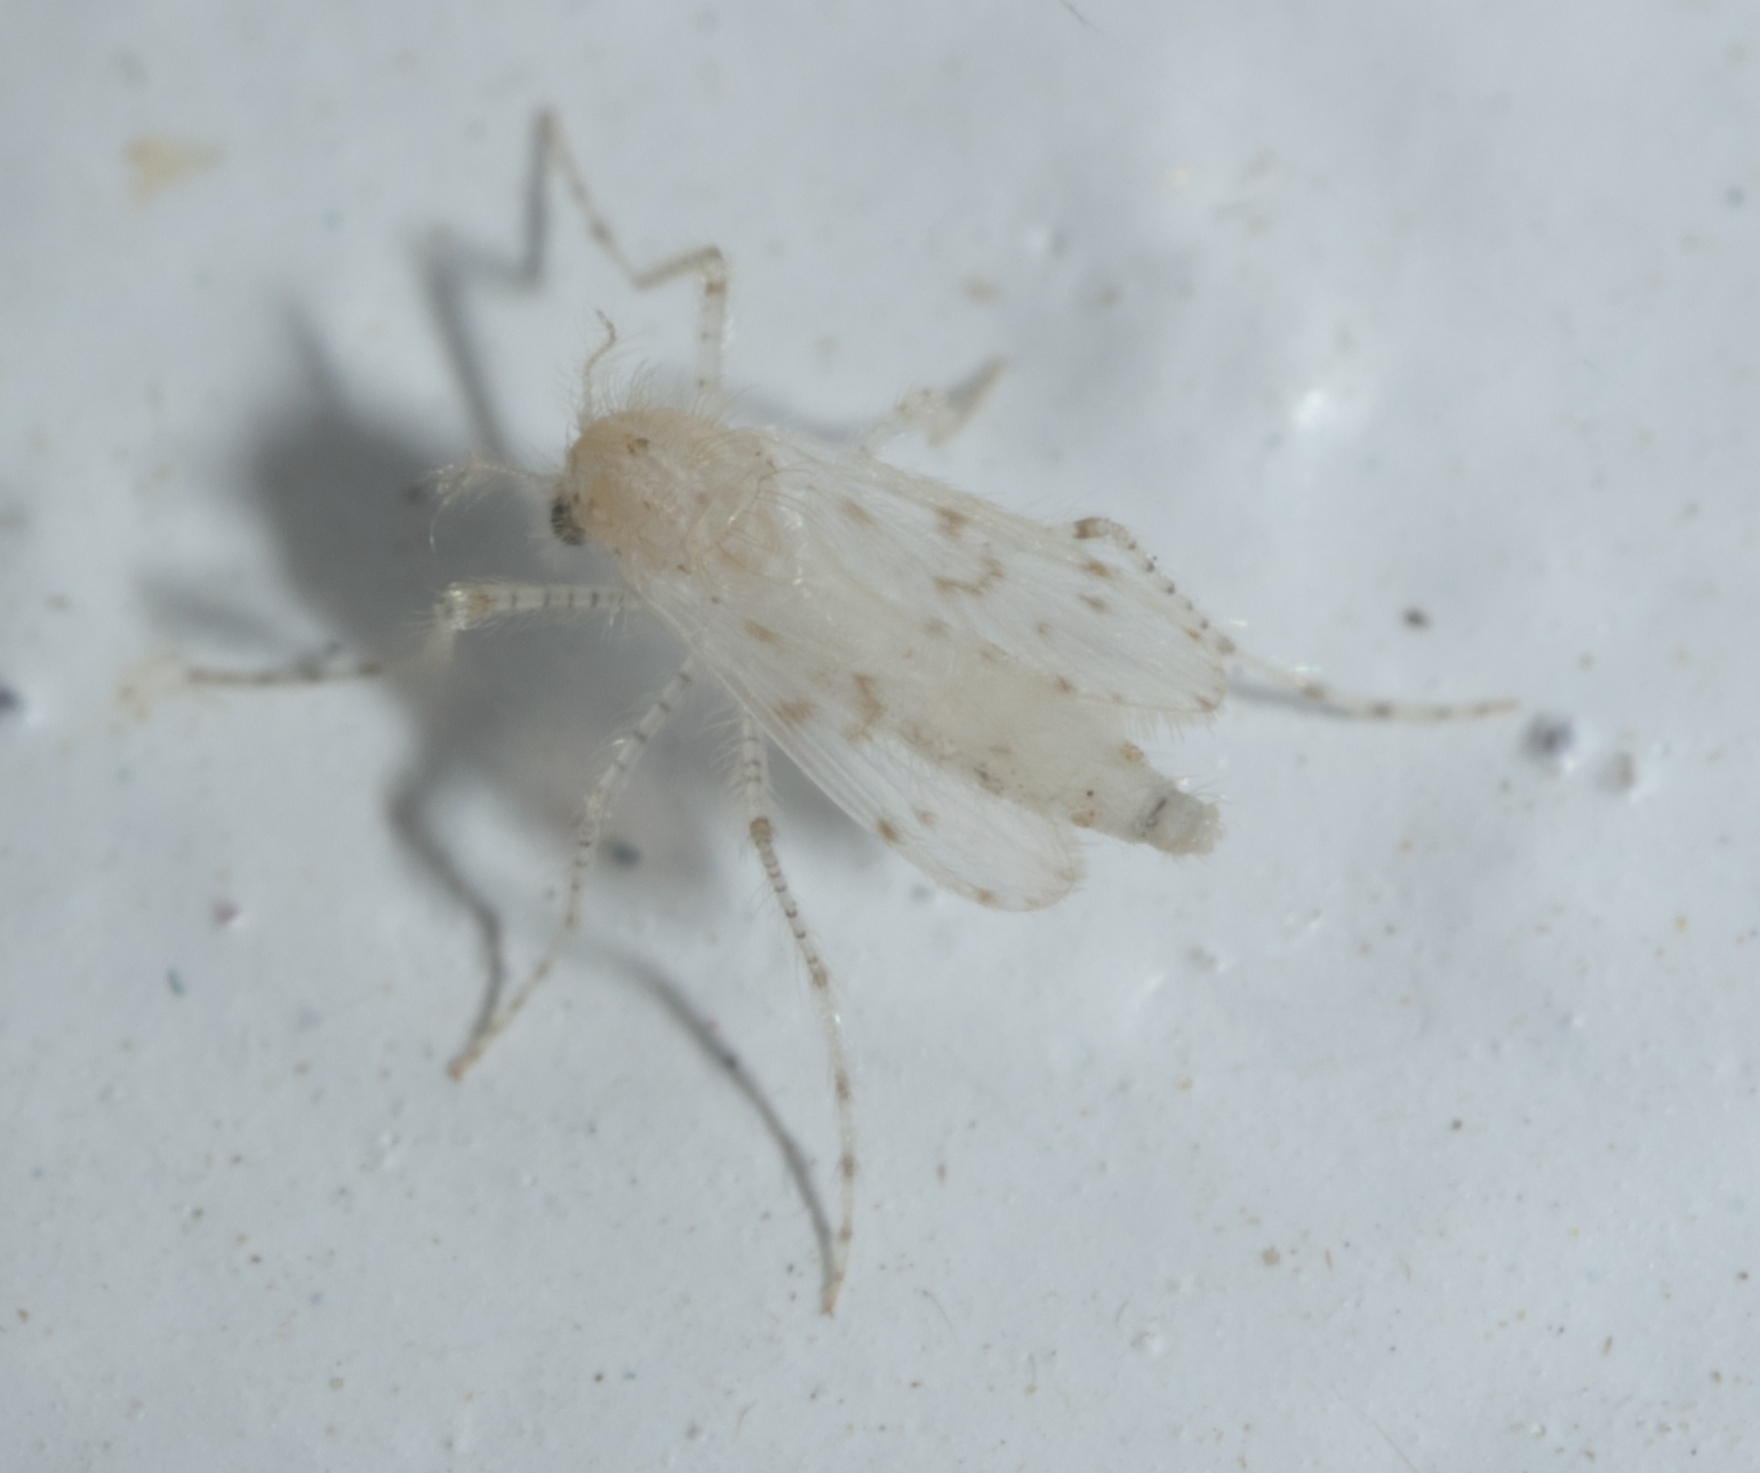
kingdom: Animalia
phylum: Arthropoda
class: Insecta
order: Diptera
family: Chaoboridae
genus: Chaoborus
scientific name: Chaoborus maculipes
